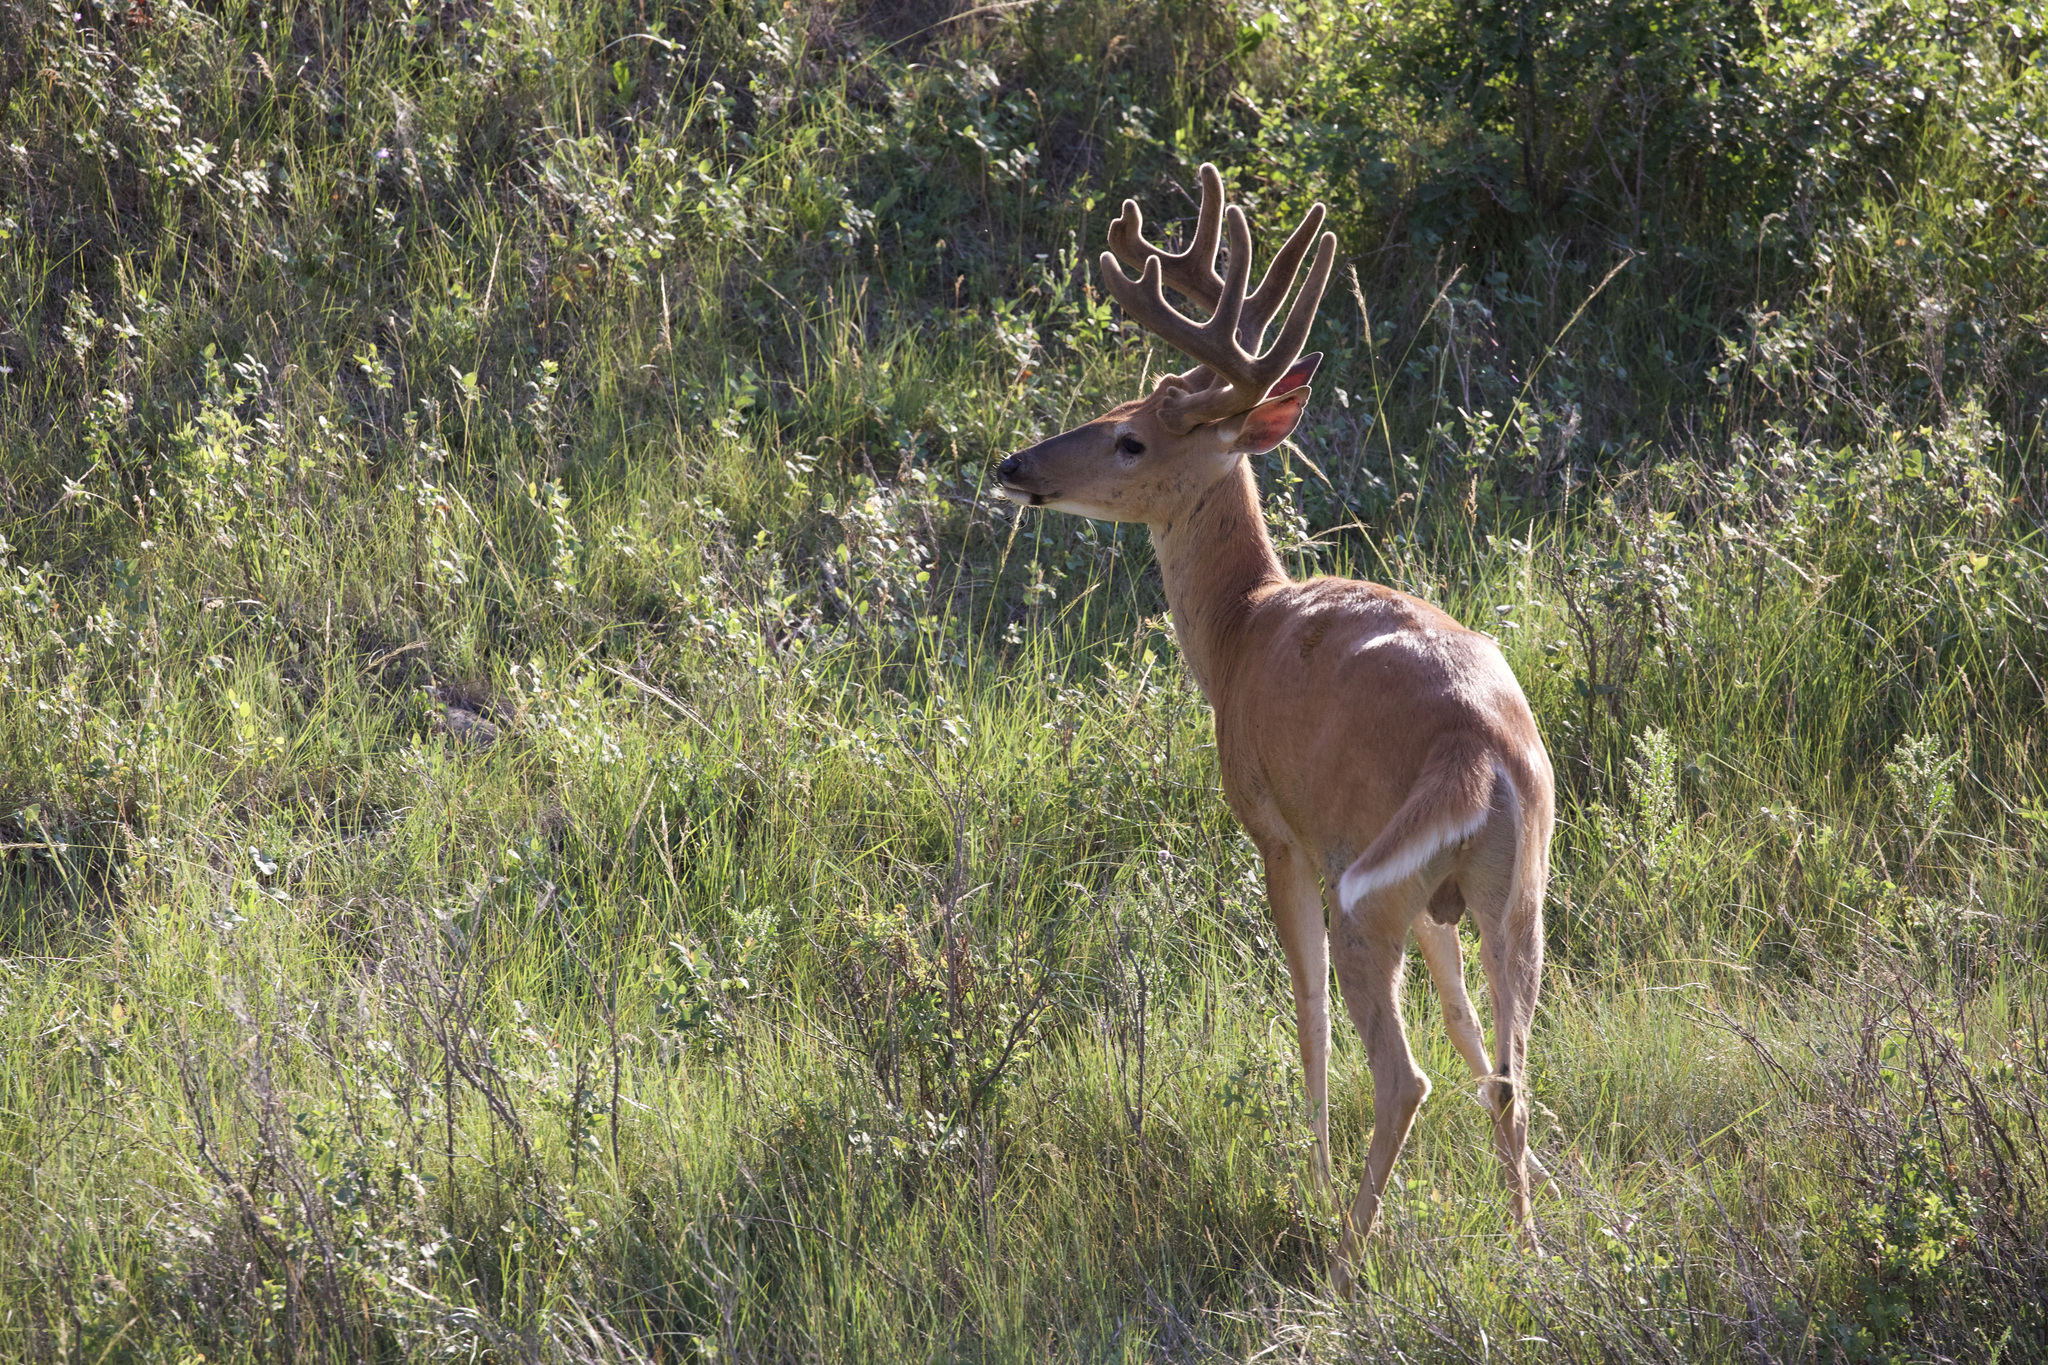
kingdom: Animalia
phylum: Chordata
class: Mammalia
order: Artiodactyla
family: Cervidae
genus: Odocoileus
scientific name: Odocoileus virginianus
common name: White-tailed deer
